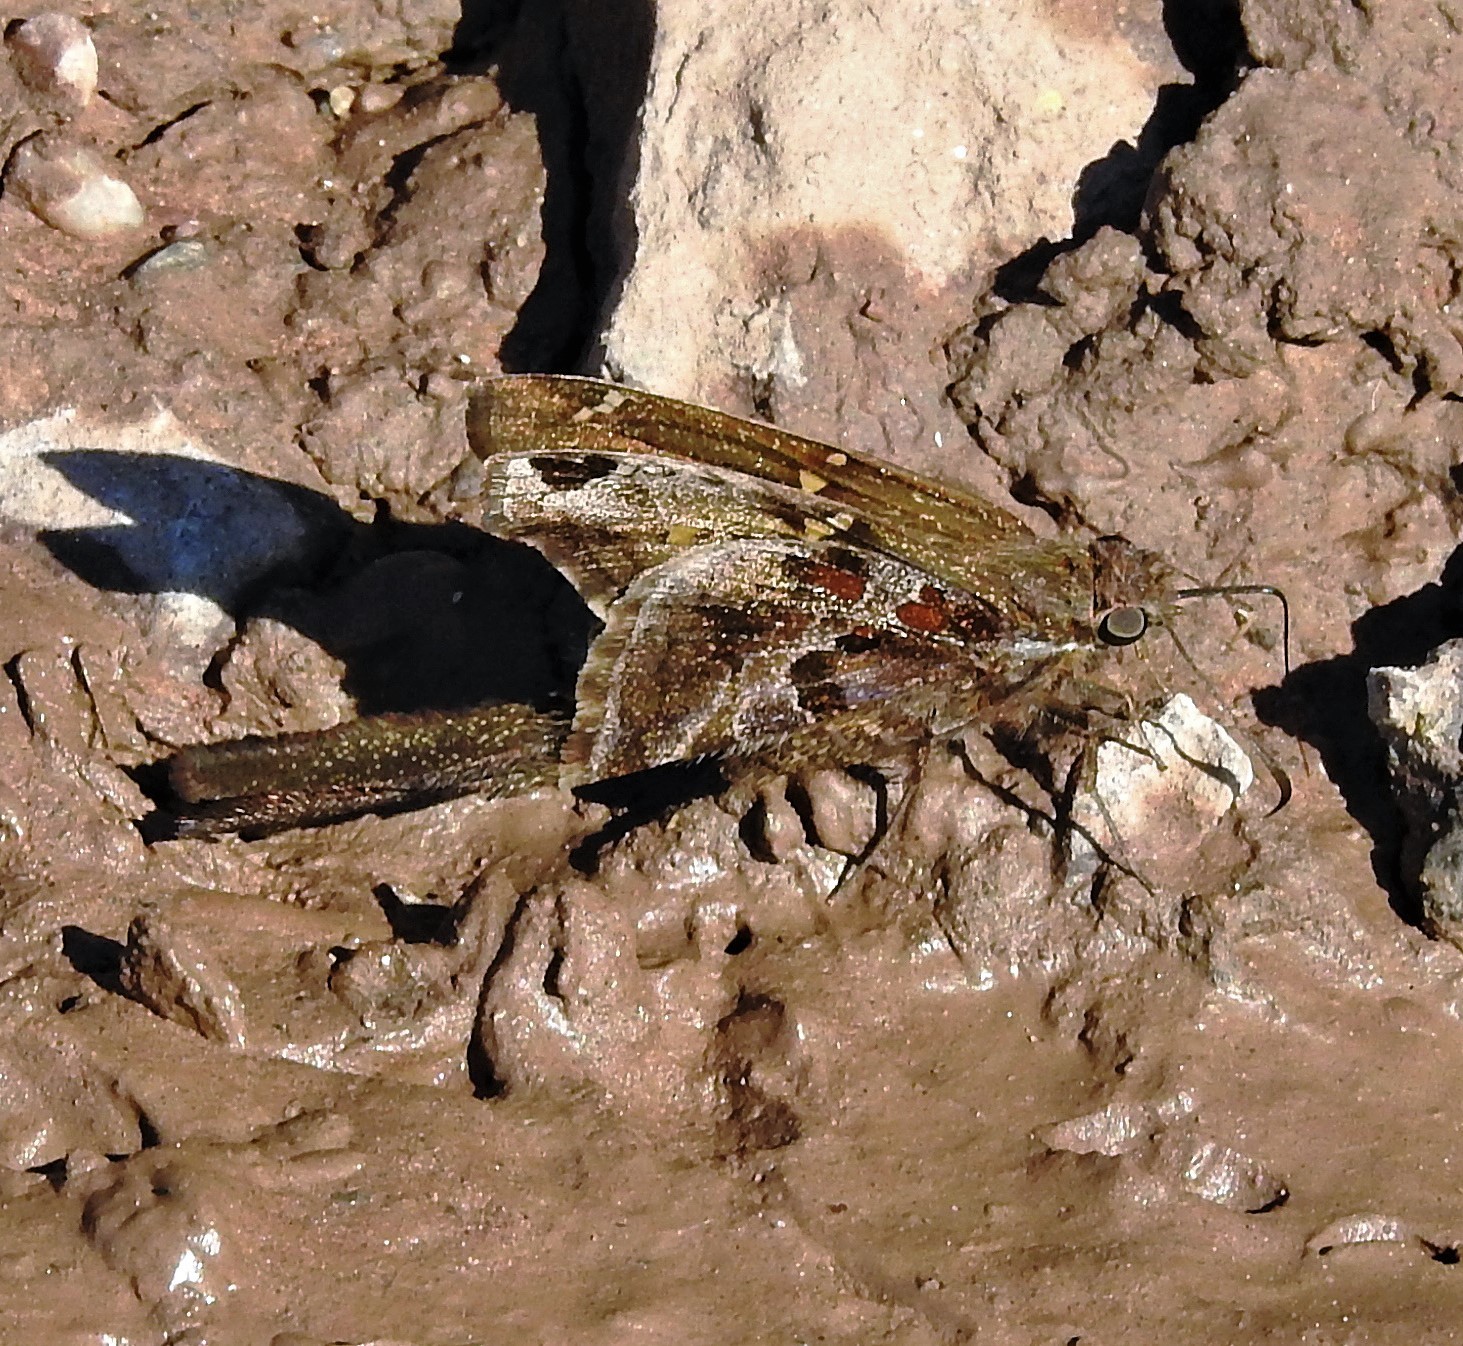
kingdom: Animalia
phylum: Arthropoda
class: Insecta
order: Lepidoptera
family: Hesperiidae
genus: Chioides
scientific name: Chioides catillus
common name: Silverbanded skipper
